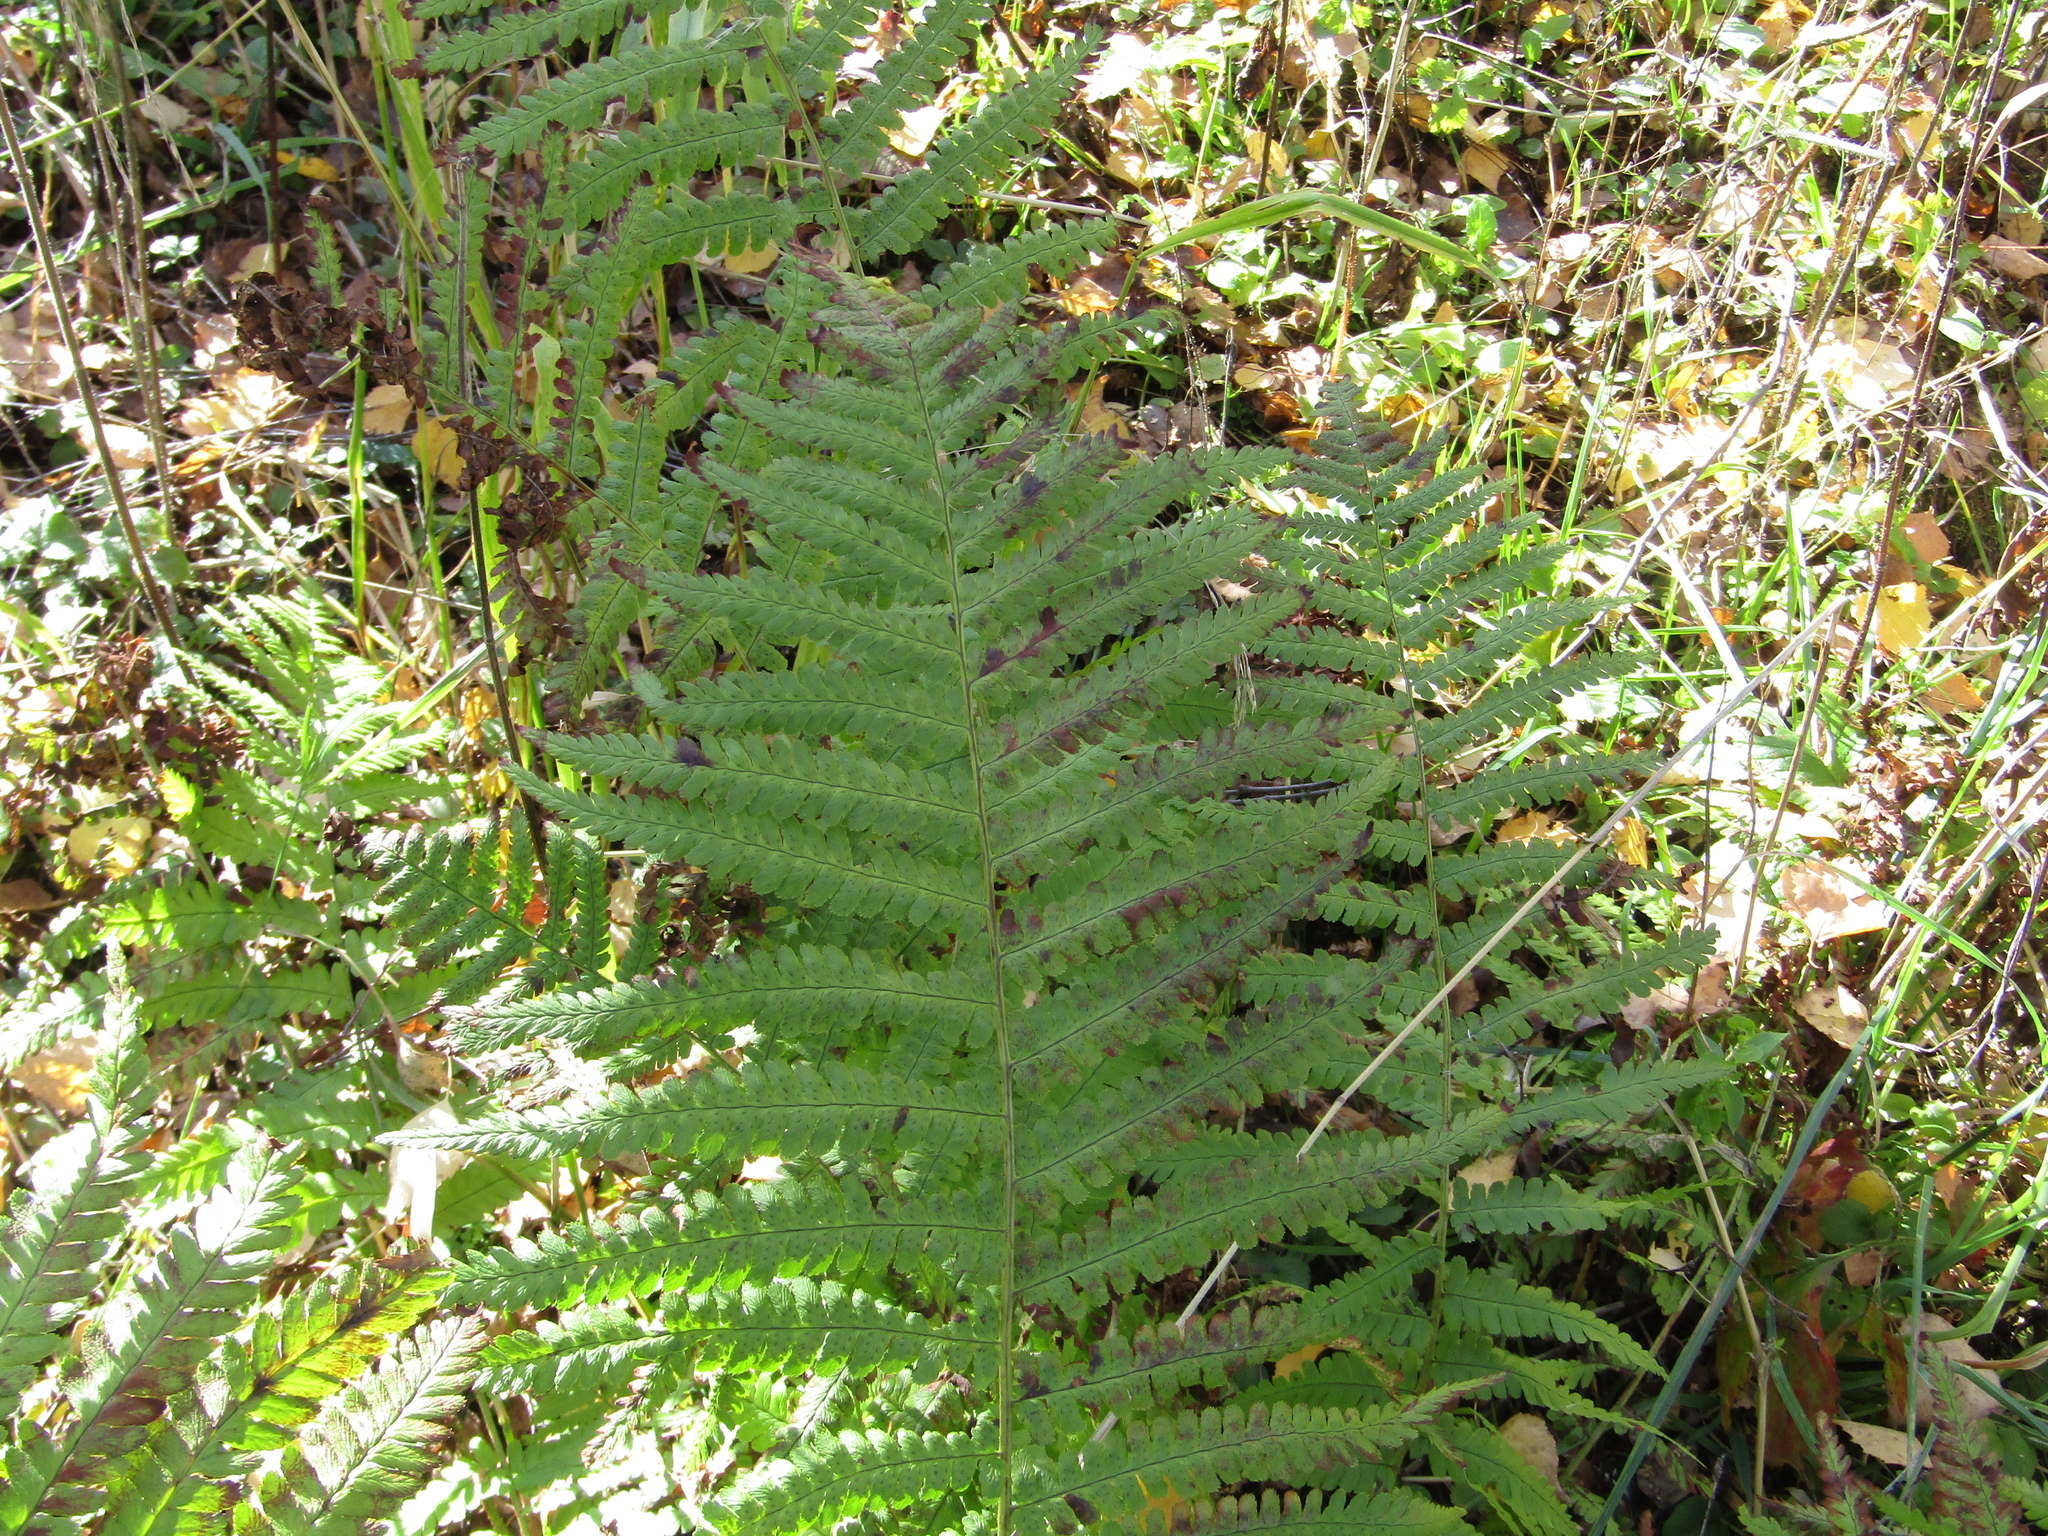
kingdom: Plantae
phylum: Tracheophyta
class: Polypodiopsida
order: Polypodiales
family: Dryopteridaceae
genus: Dryopteris
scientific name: Dryopteris filix-mas
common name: Male fern
